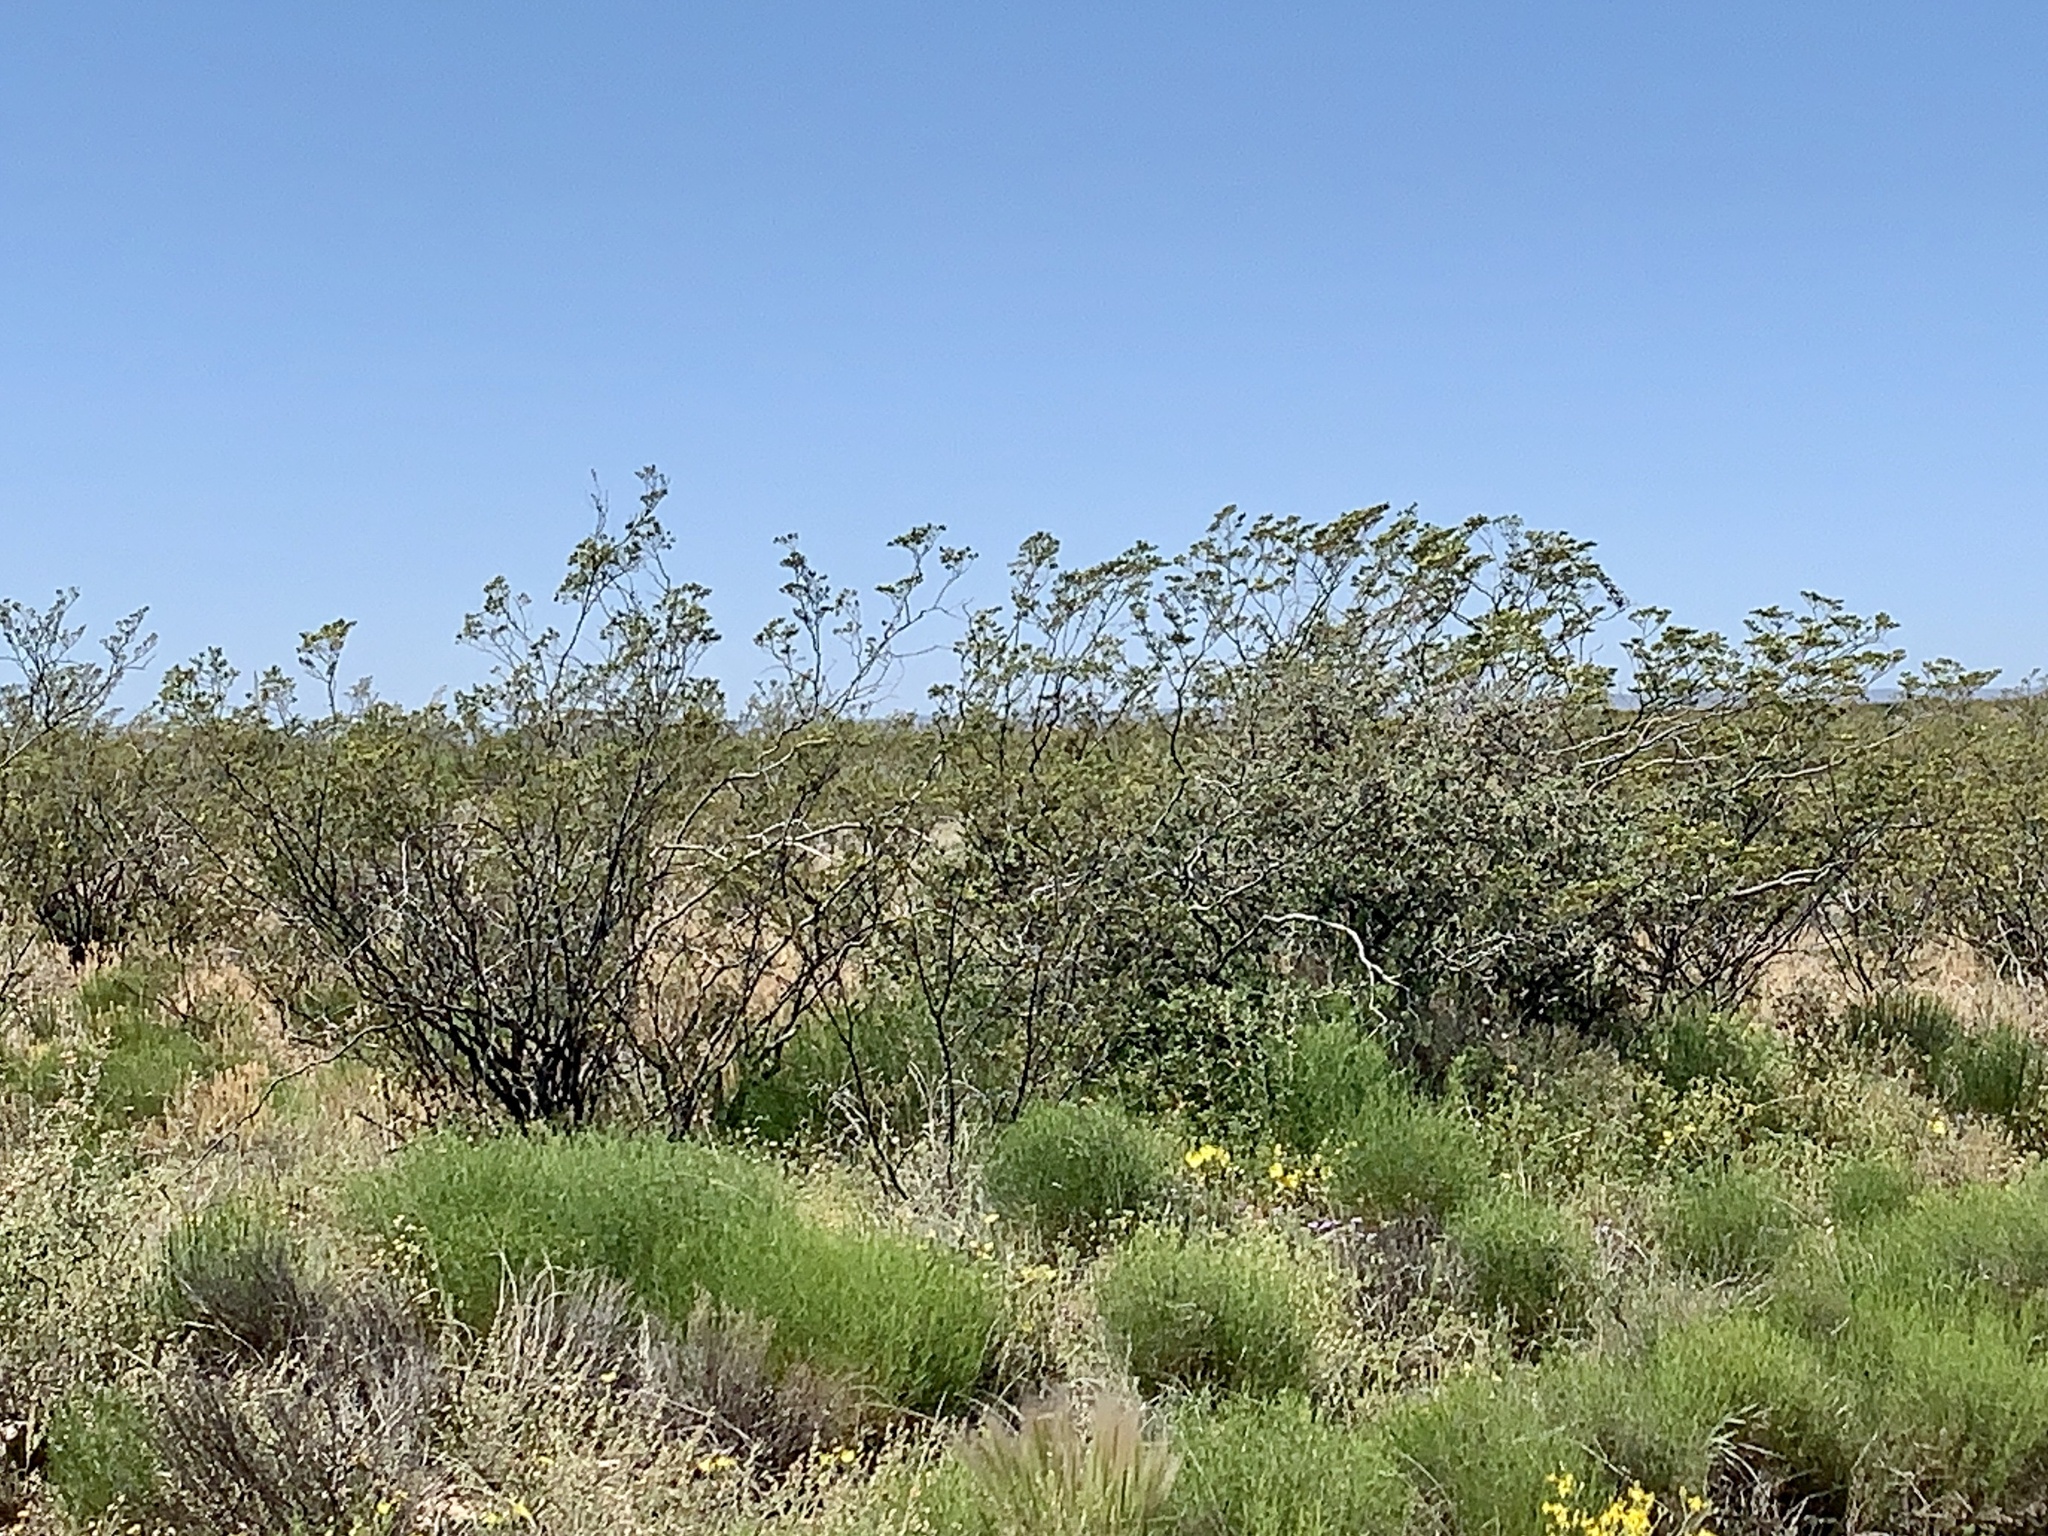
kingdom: Plantae
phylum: Tracheophyta
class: Magnoliopsida
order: Zygophyllales
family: Zygophyllaceae
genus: Larrea
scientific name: Larrea tridentata
